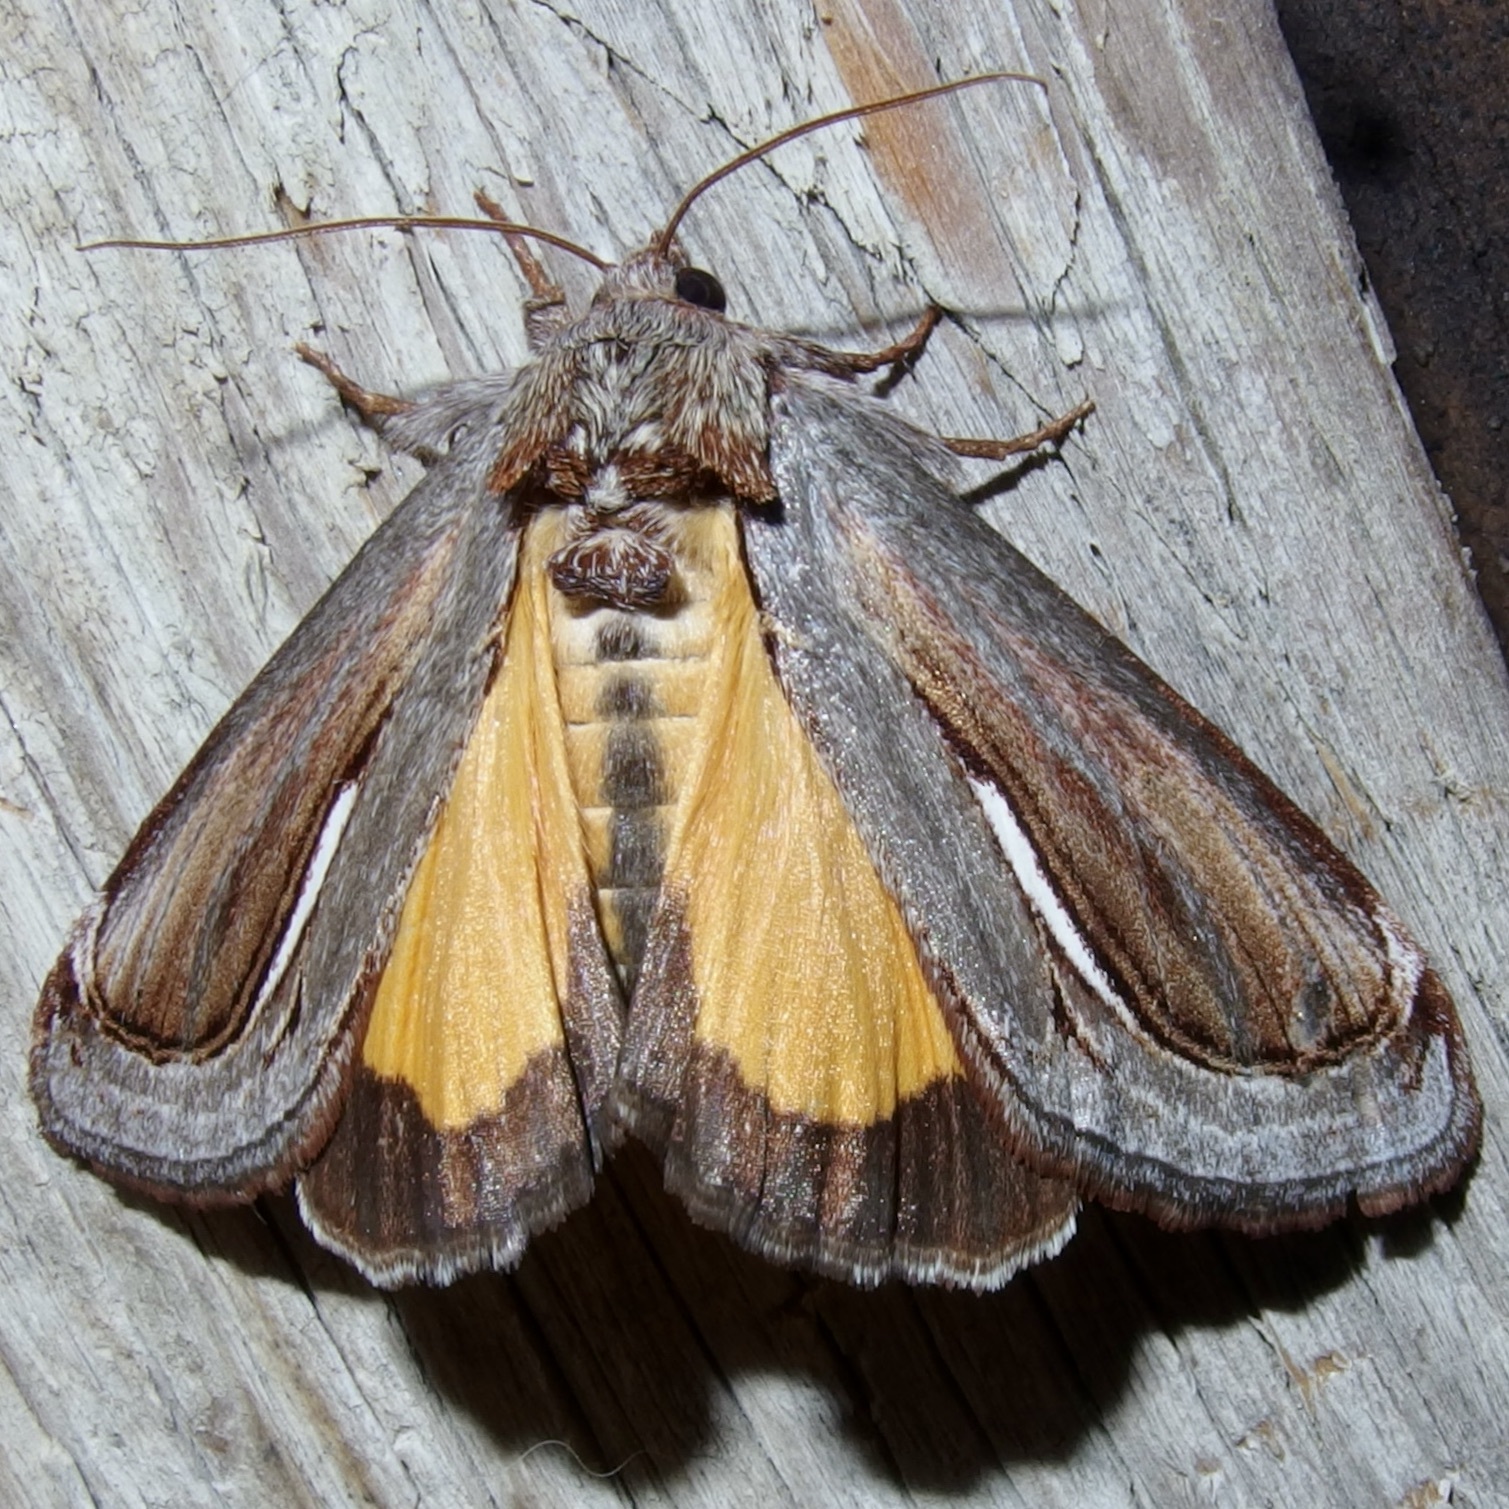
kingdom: Animalia
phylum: Arthropoda
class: Insecta
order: Lepidoptera
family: Noctuidae
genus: Gerrodes
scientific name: Gerrodes minatea
